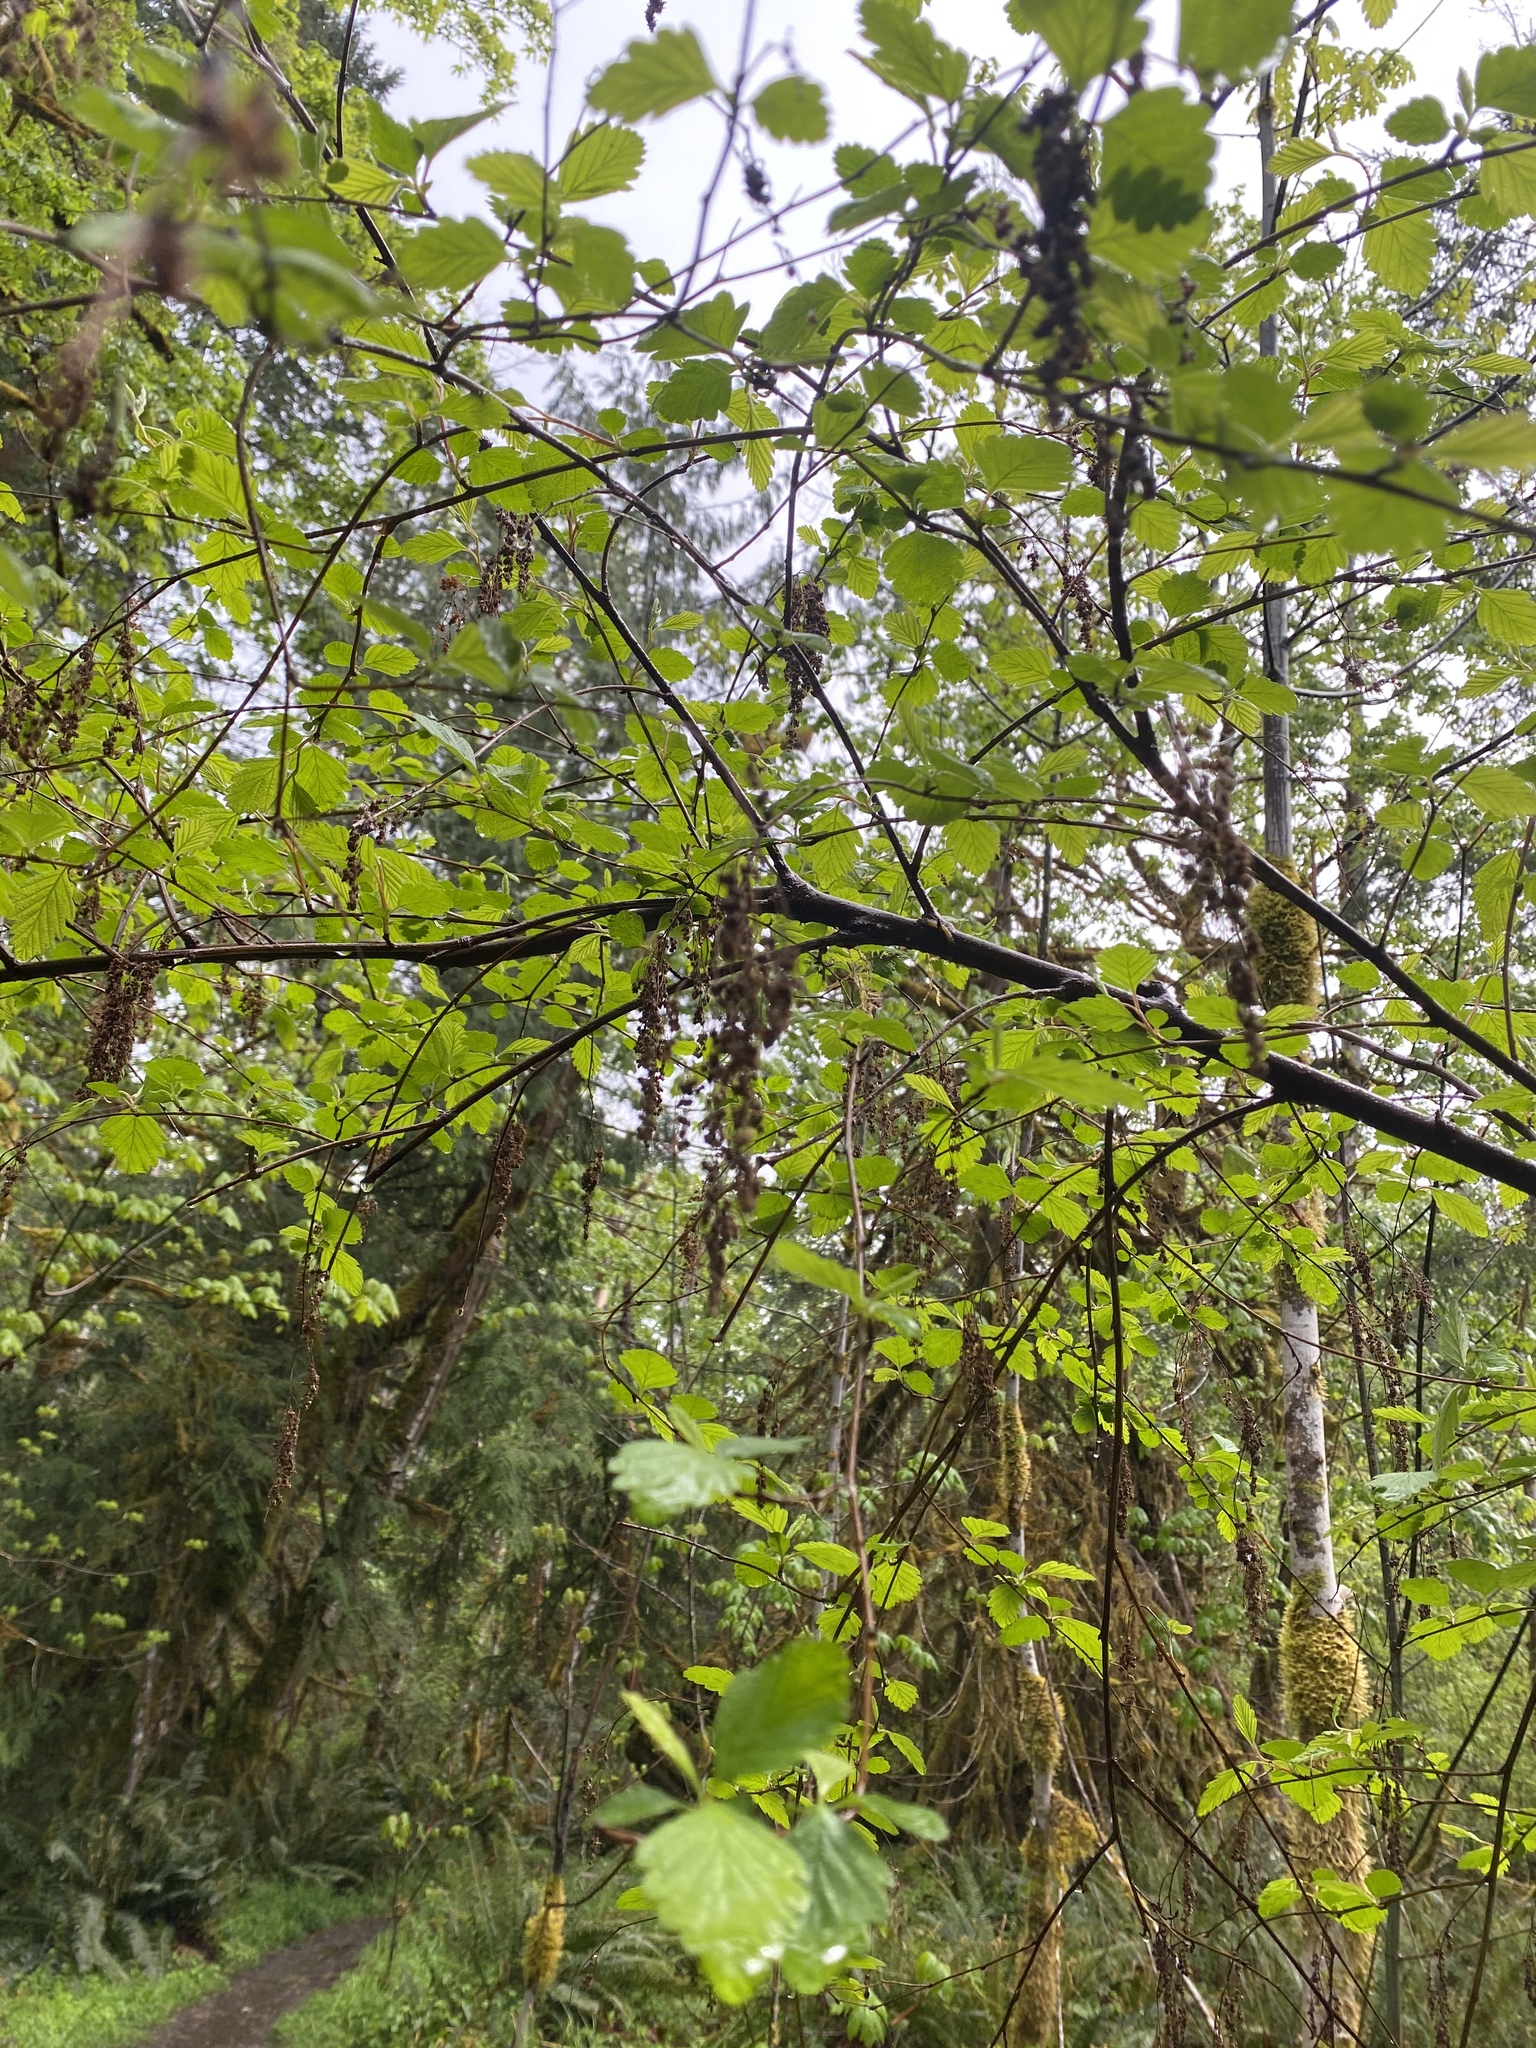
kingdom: Plantae
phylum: Tracheophyta
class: Magnoliopsida
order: Rosales
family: Rosaceae
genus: Holodiscus
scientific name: Holodiscus discolor
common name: Oceanspray
